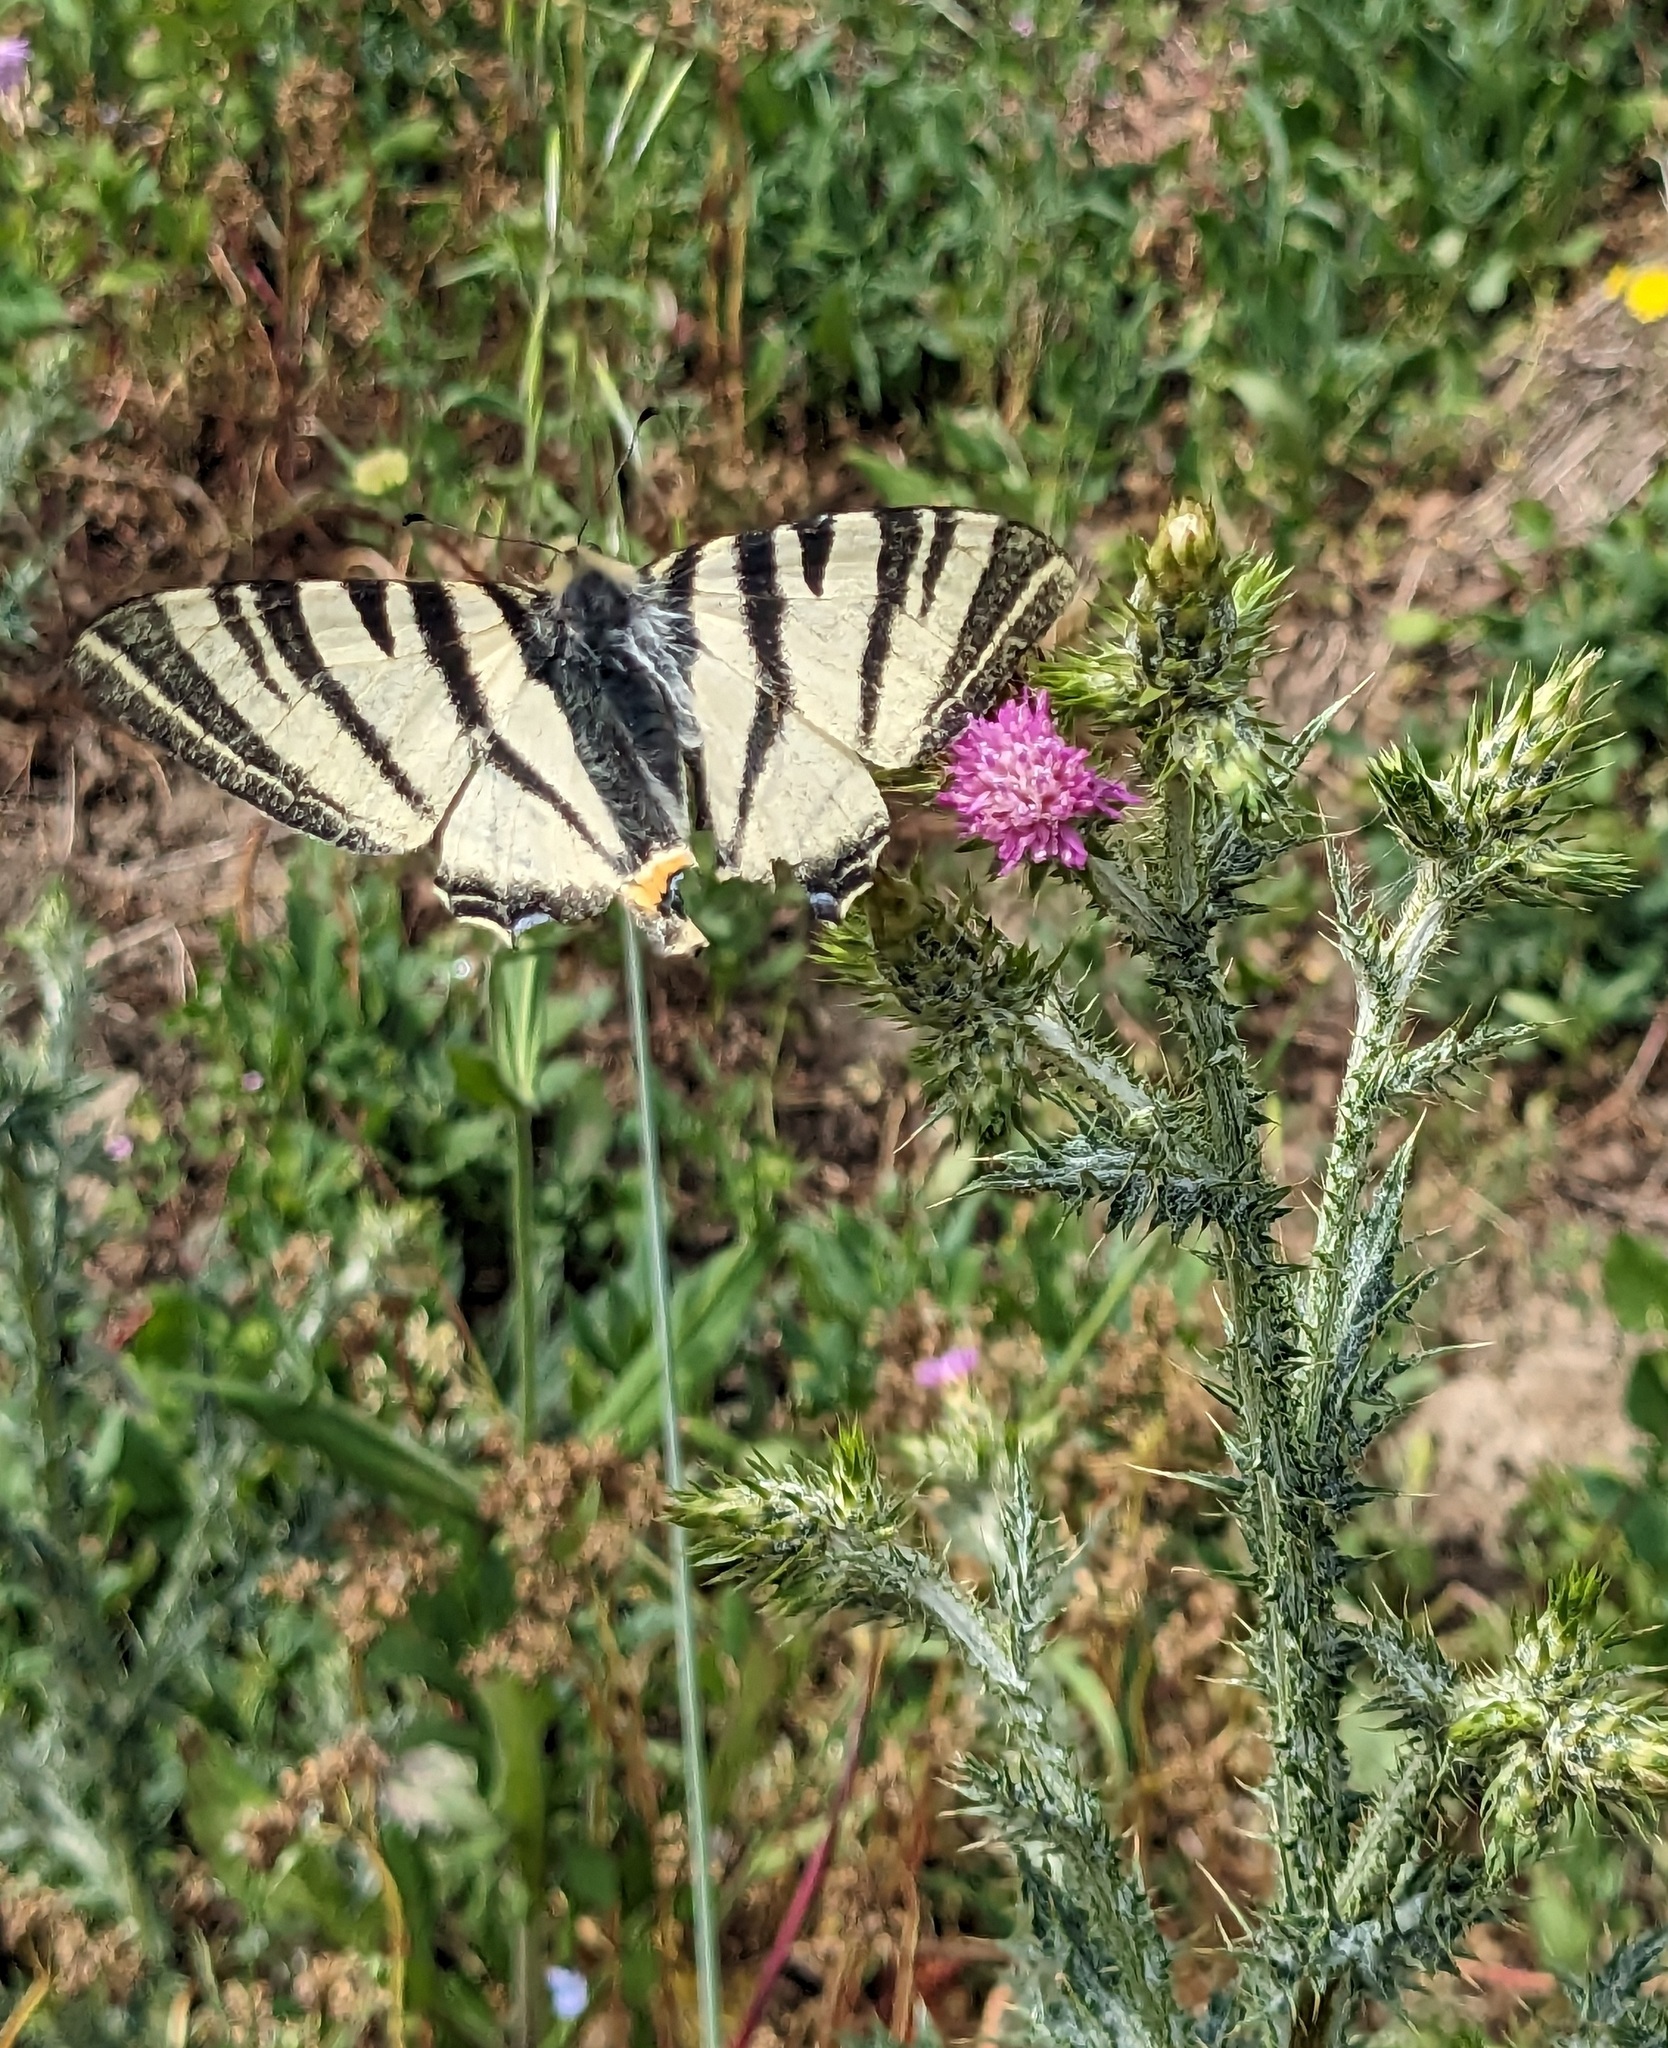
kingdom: Animalia
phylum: Arthropoda
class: Insecta
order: Lepidoptera
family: Papilionidae
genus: Iphiclides
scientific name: Iphiclides podalirius
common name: Scarce swallowtail
